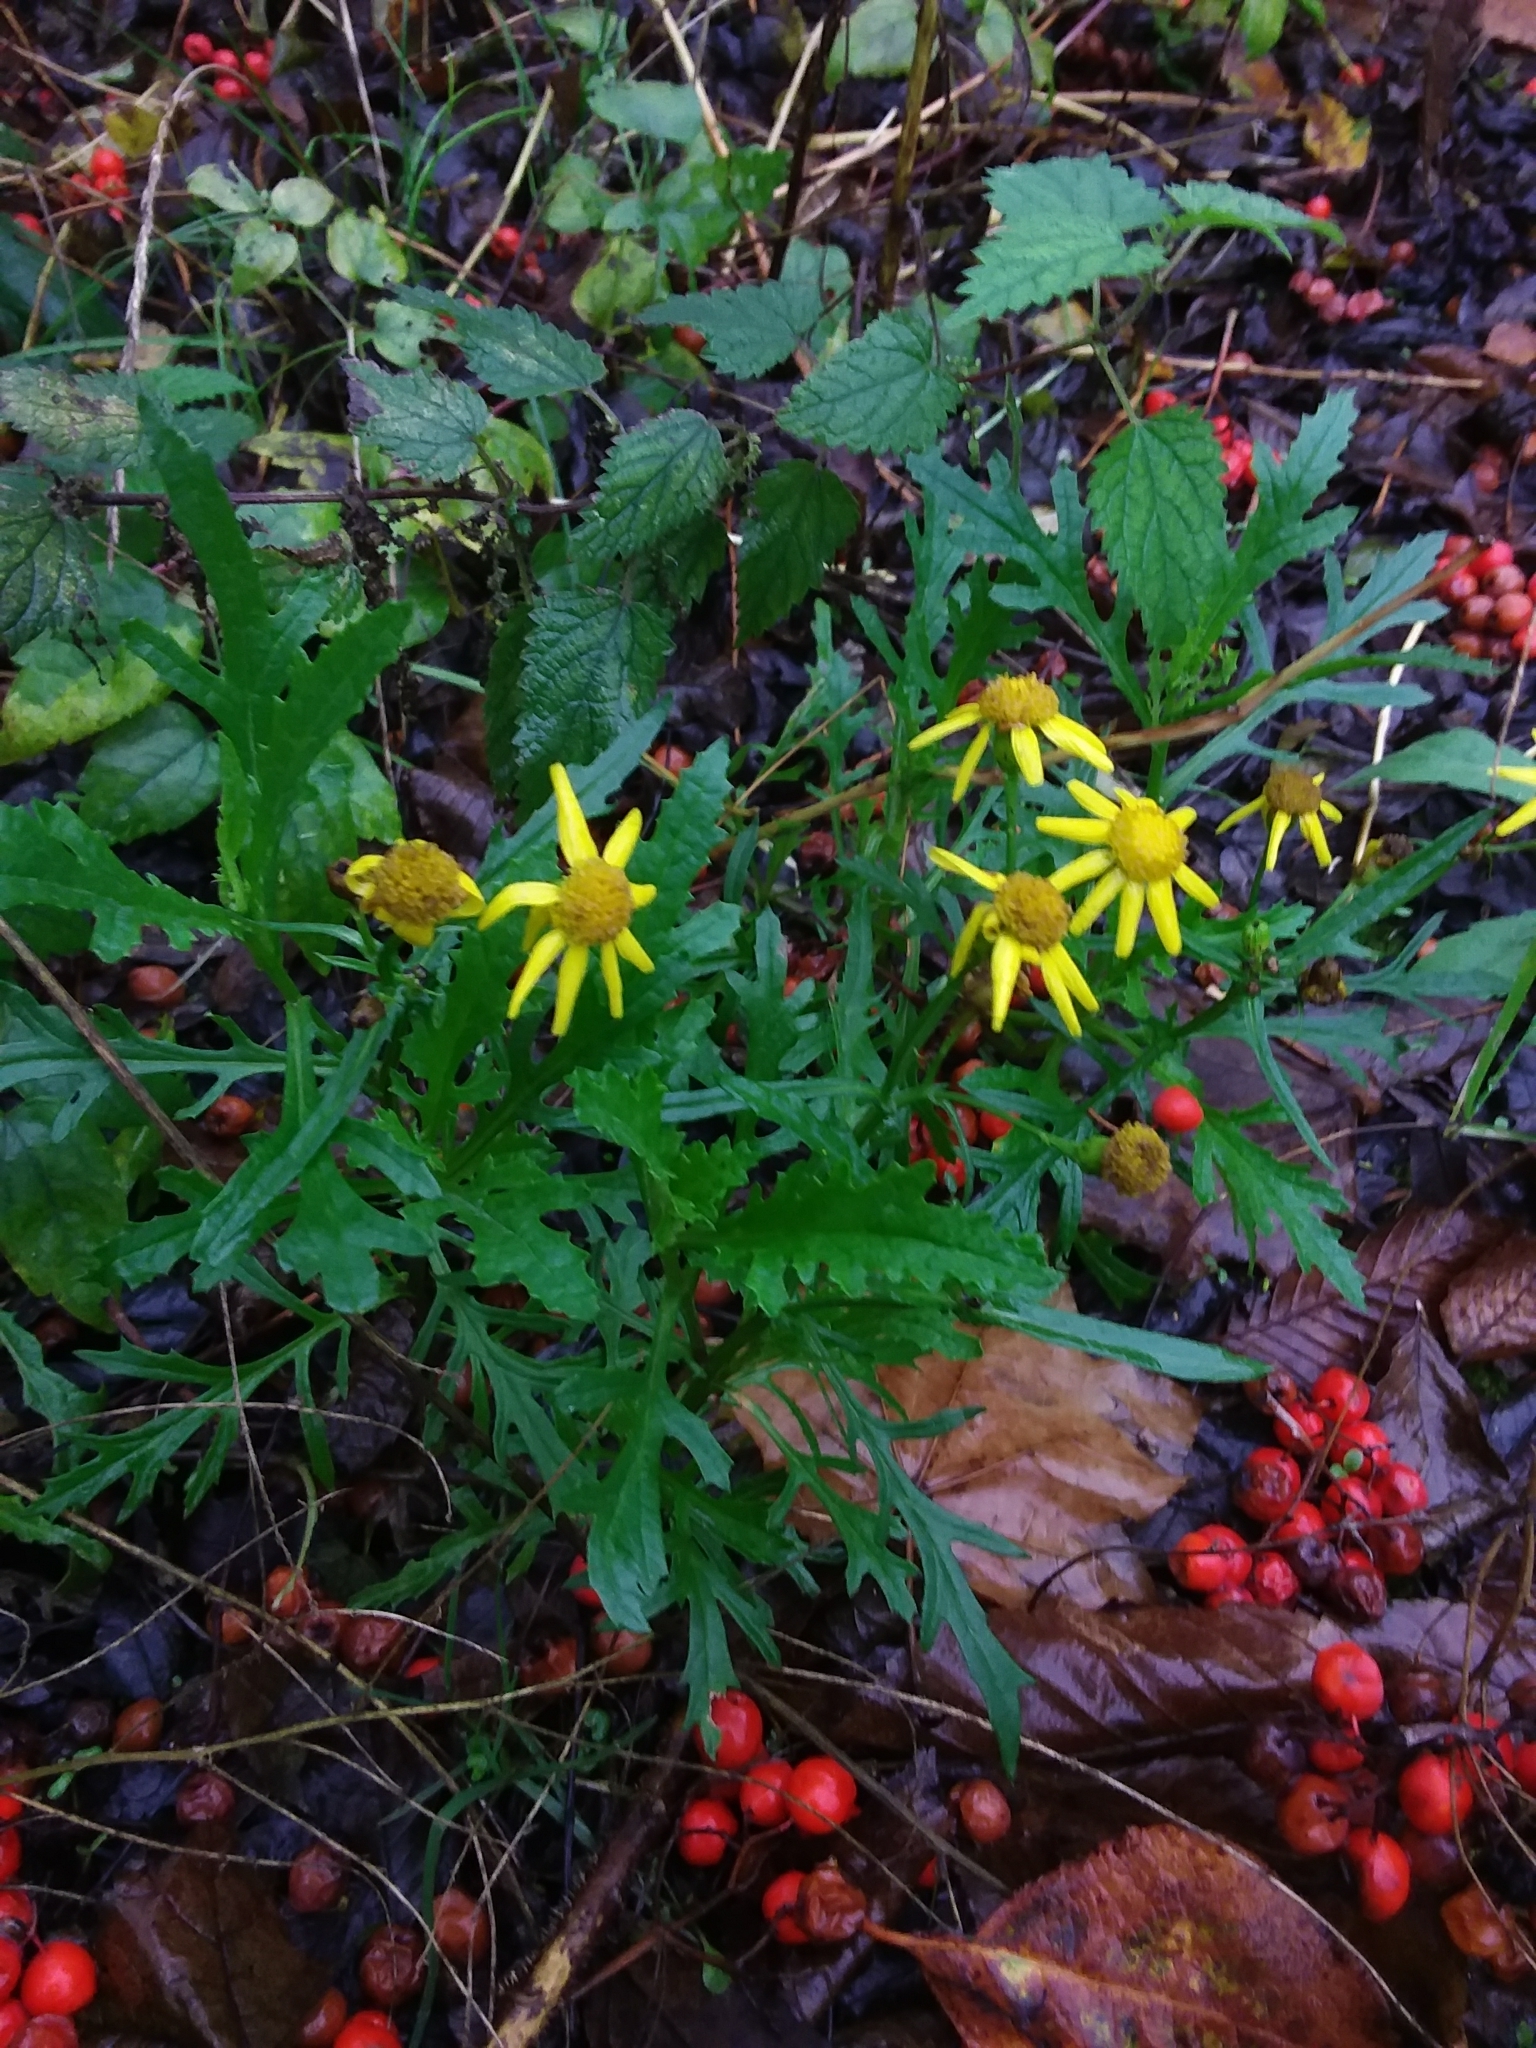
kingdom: Plantae
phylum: Tracheophyta
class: Magnoliopsida
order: Asterales
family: Asteraceae
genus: Senecio
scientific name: Senecio squalidus
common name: Oxford ragwort
